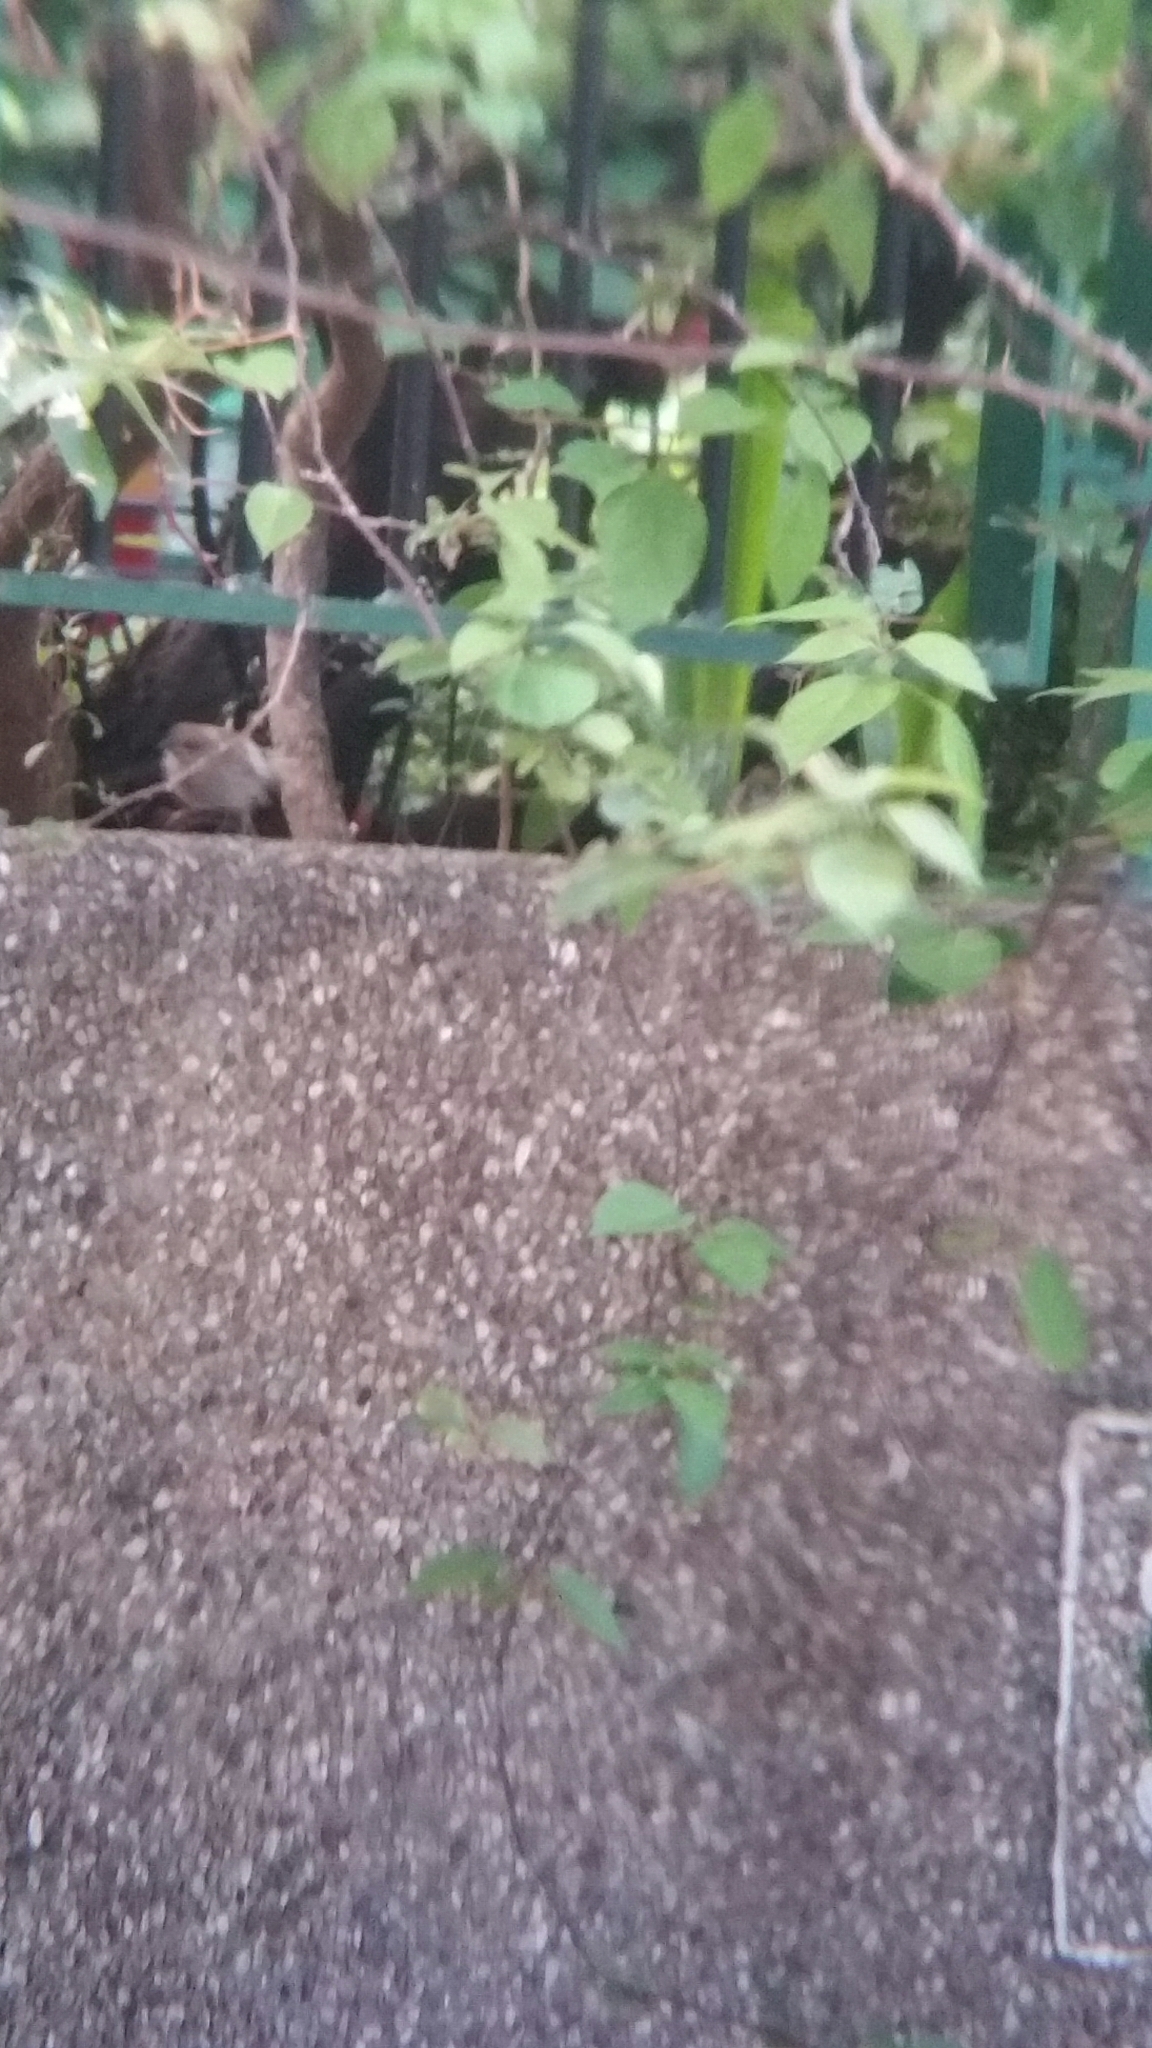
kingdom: Animalia
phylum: Chordata
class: Aves
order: Passeriformes
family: Passeridae
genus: Passer
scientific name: Passer montanus
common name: Eurasian tree sparrow
